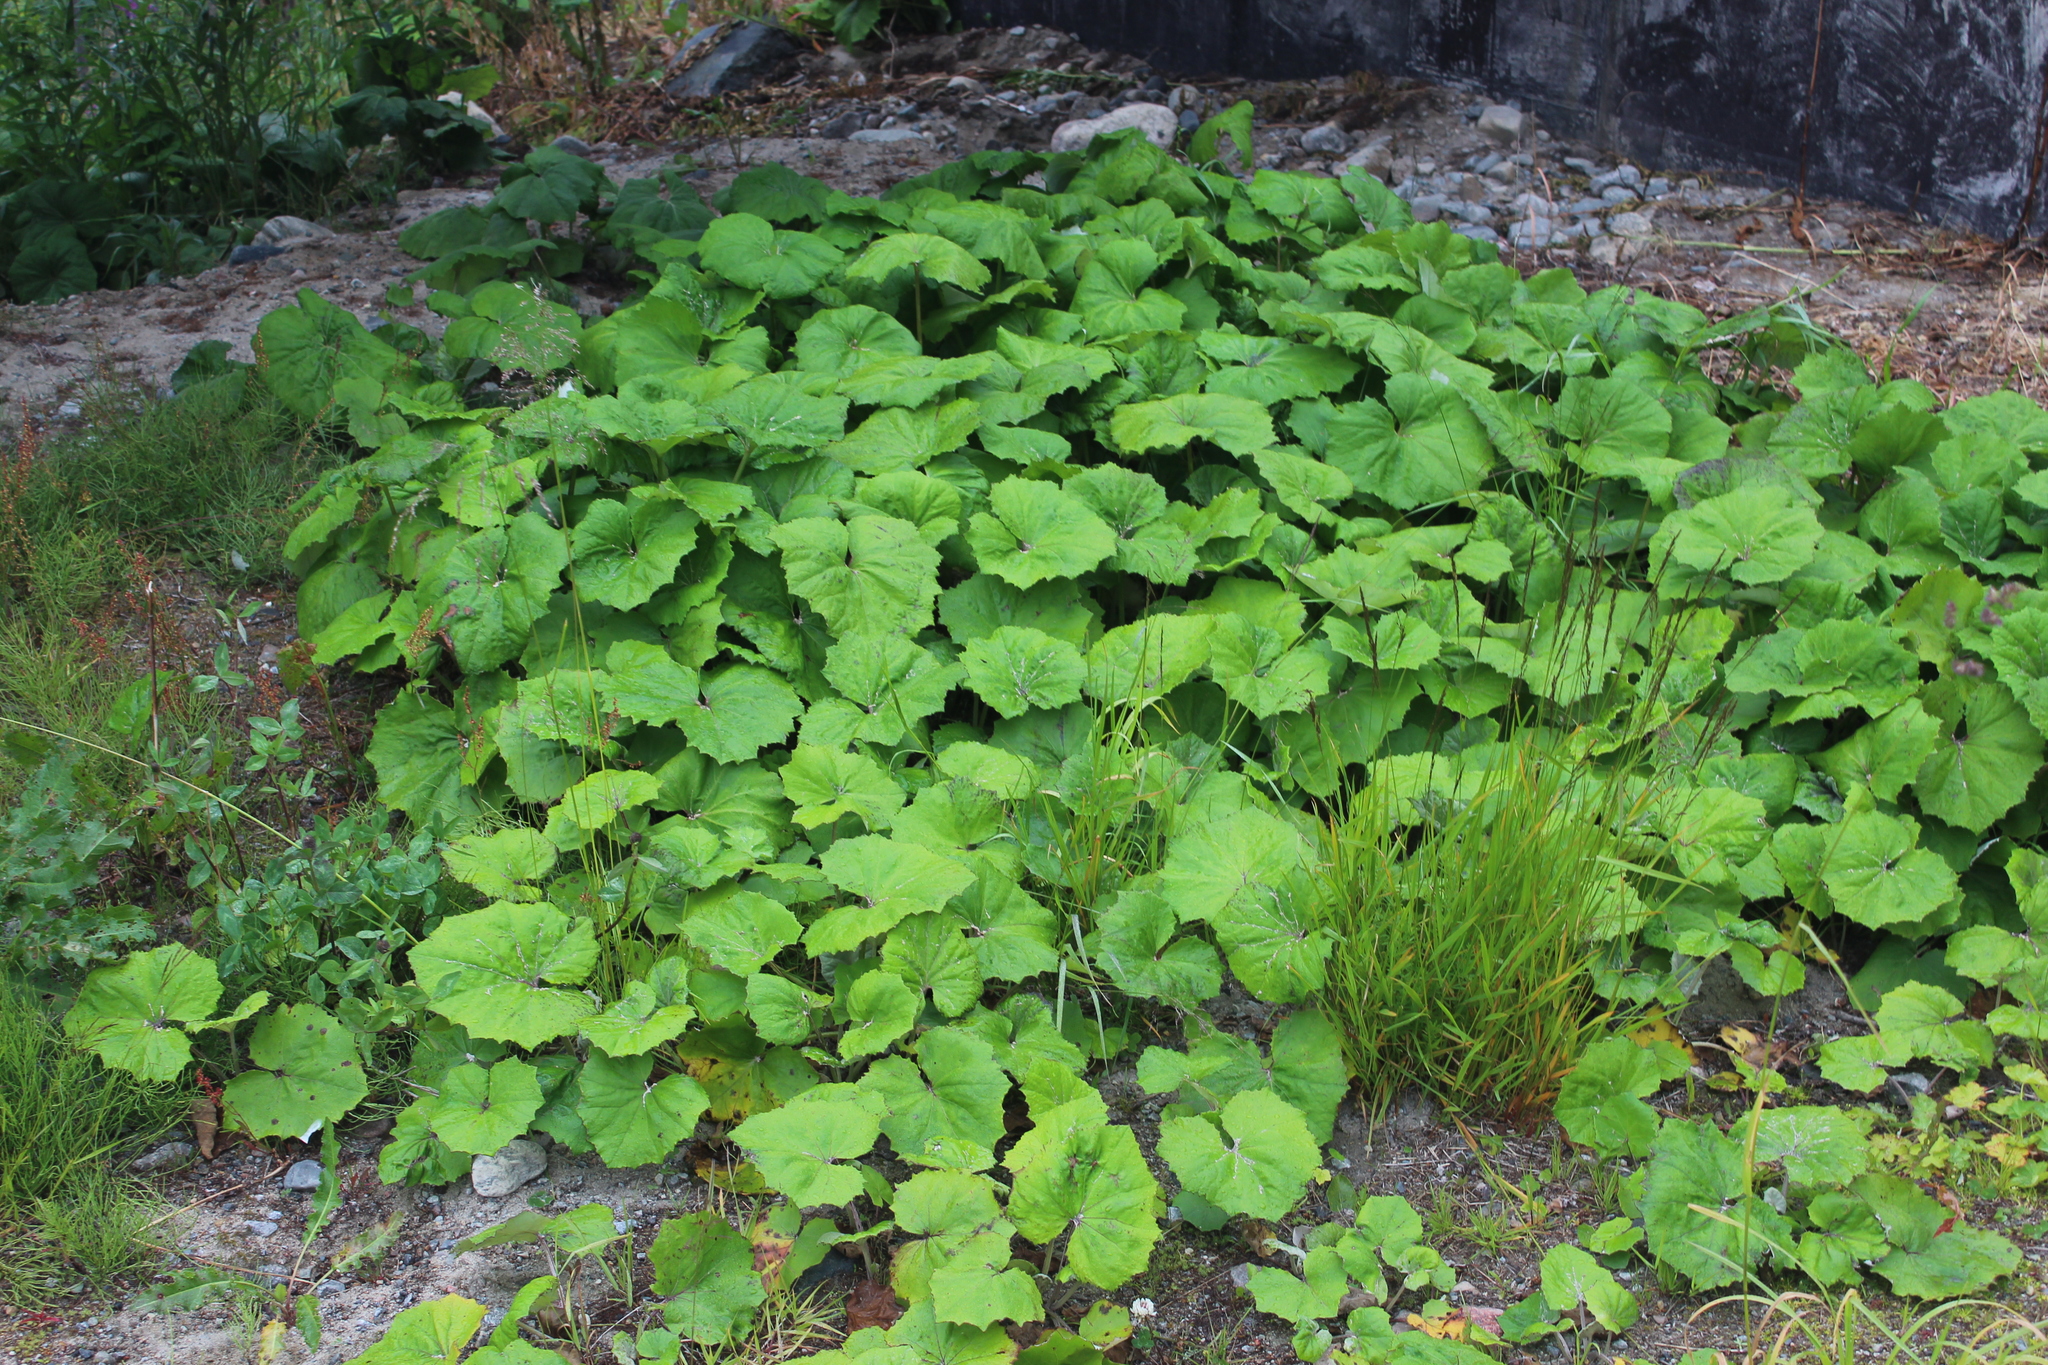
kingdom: Plantae
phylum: Tracheophyta
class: Magnoliopsida
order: Asterales
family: Asteraceae
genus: Tussilago
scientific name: Tussilago farfara
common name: Coltsfoot
